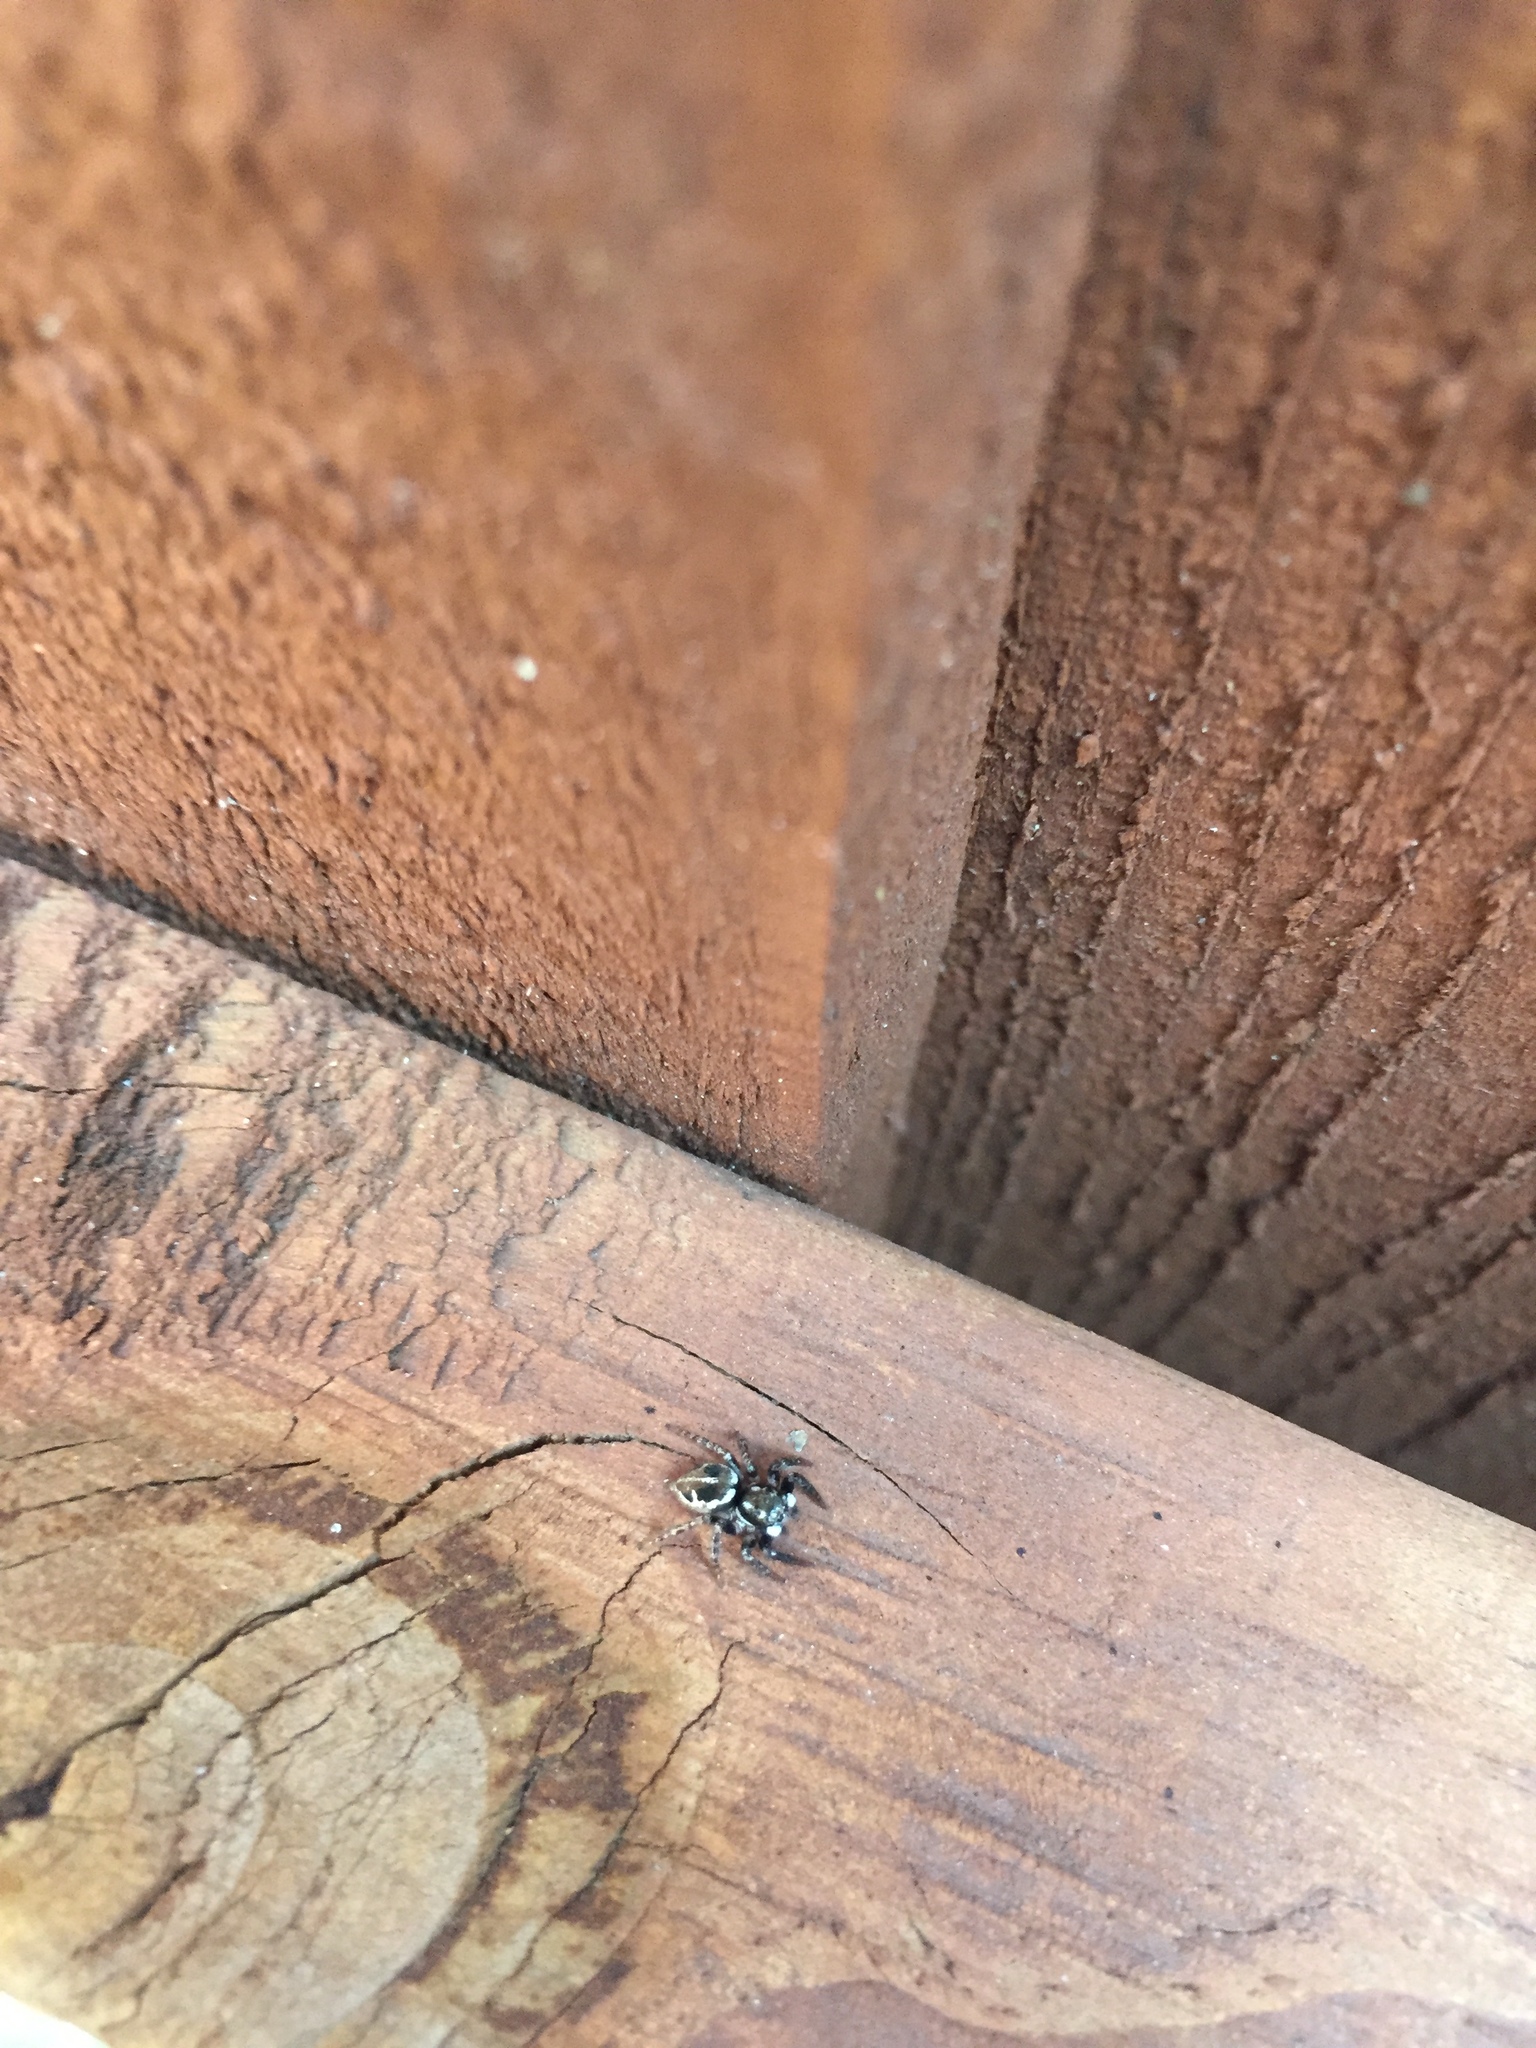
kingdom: Animalia
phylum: Arthropoda
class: Arachnida
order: Araneae
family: Salticidae
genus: Anasaitis
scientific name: Anasaitis canosa
